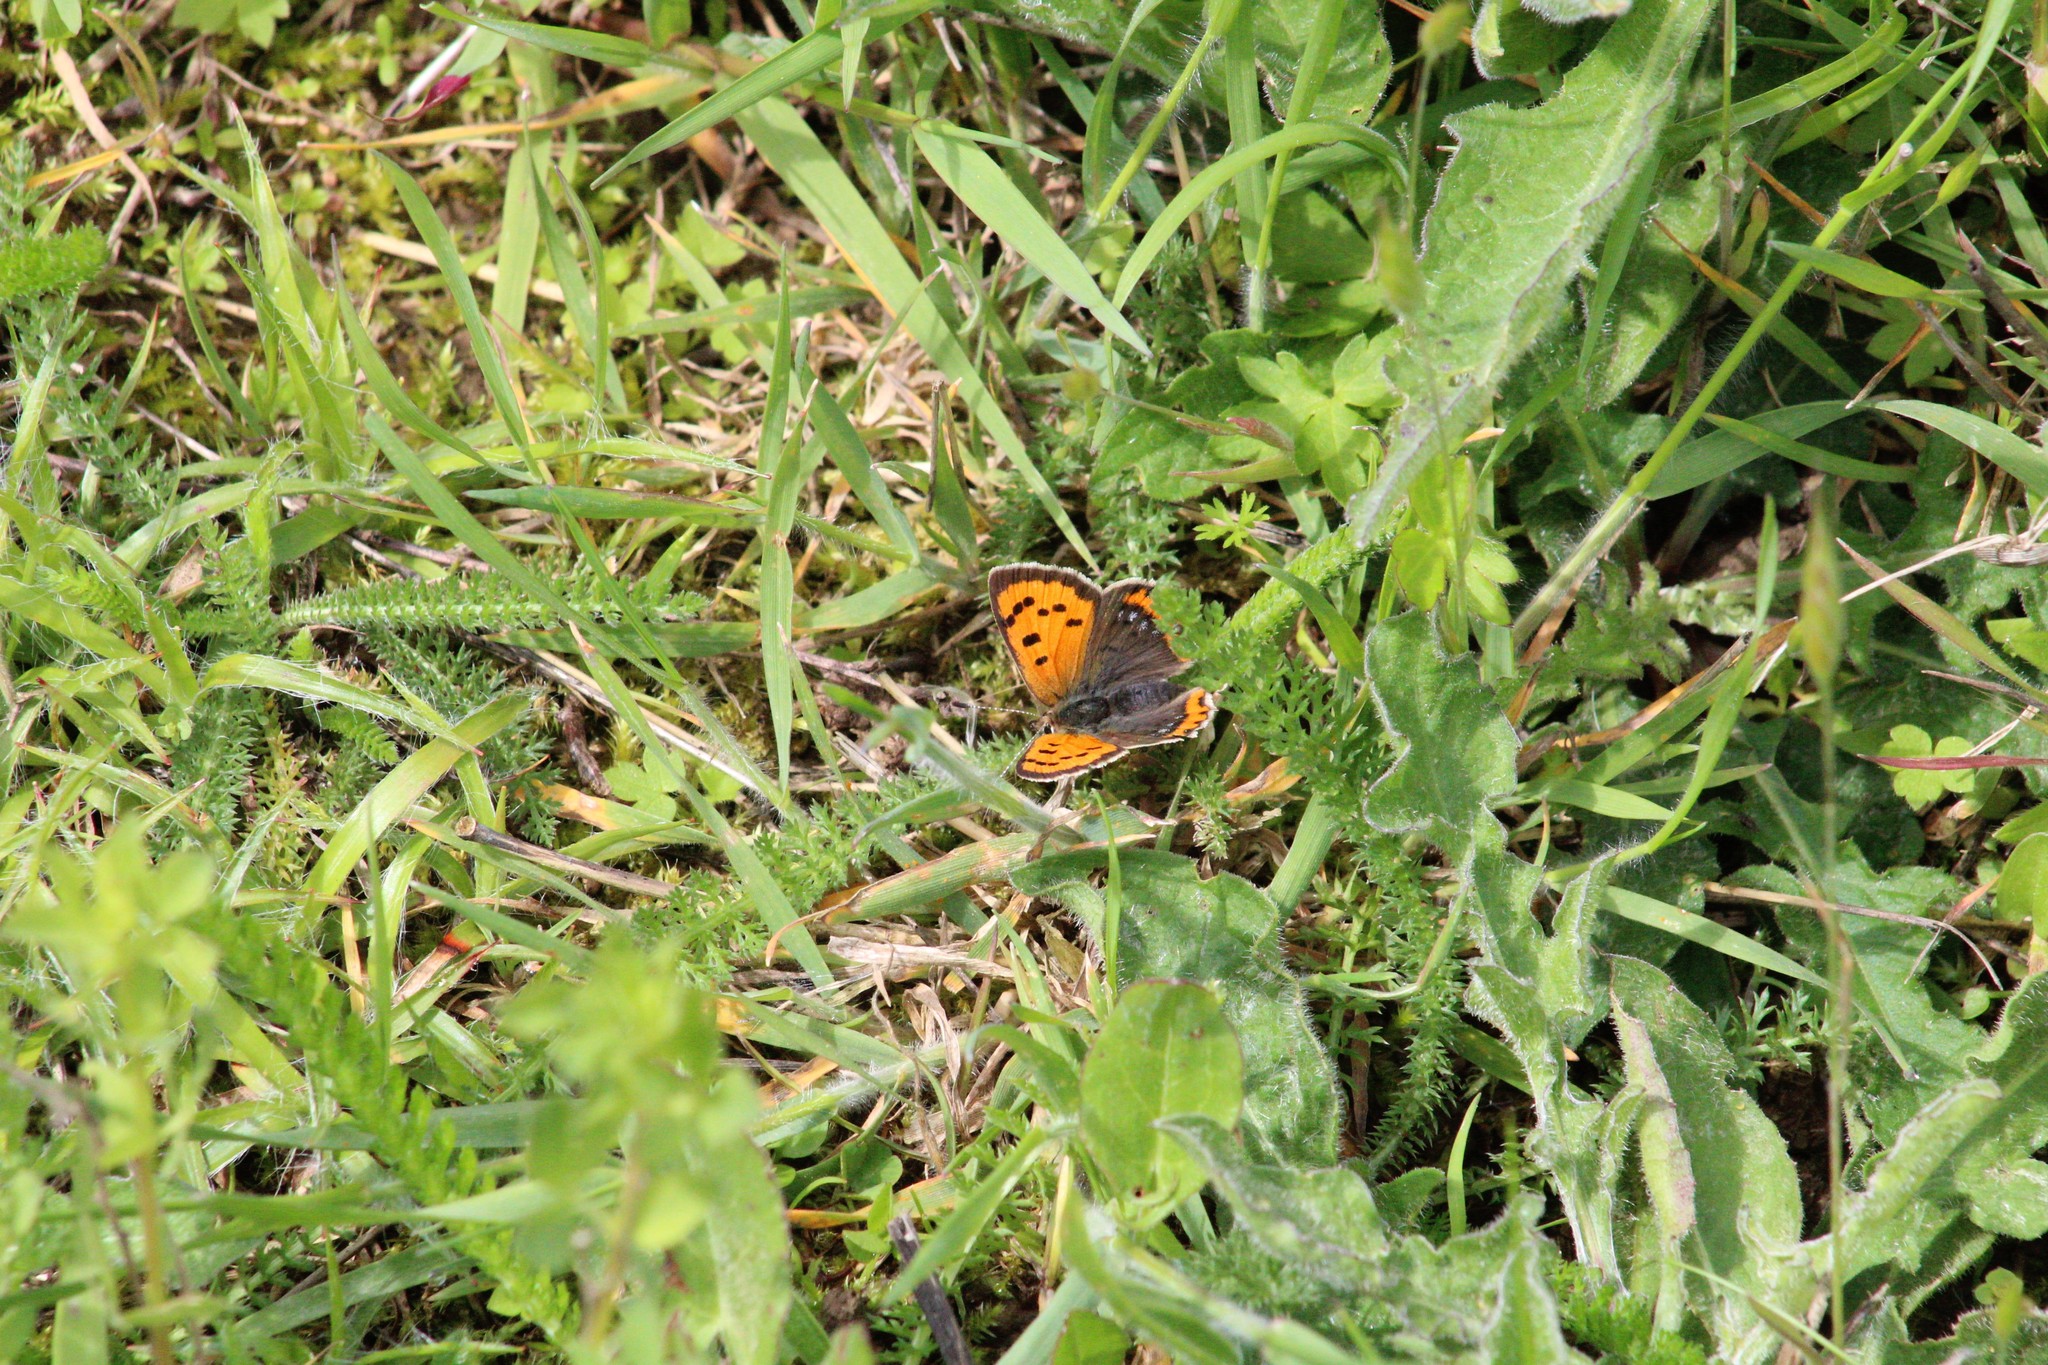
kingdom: Animalia
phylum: Arthropoda
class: Insecta
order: Lepidoptera
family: Lycaenidae
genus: Lycaena
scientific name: Lycaena phlaeas
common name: Small copper
